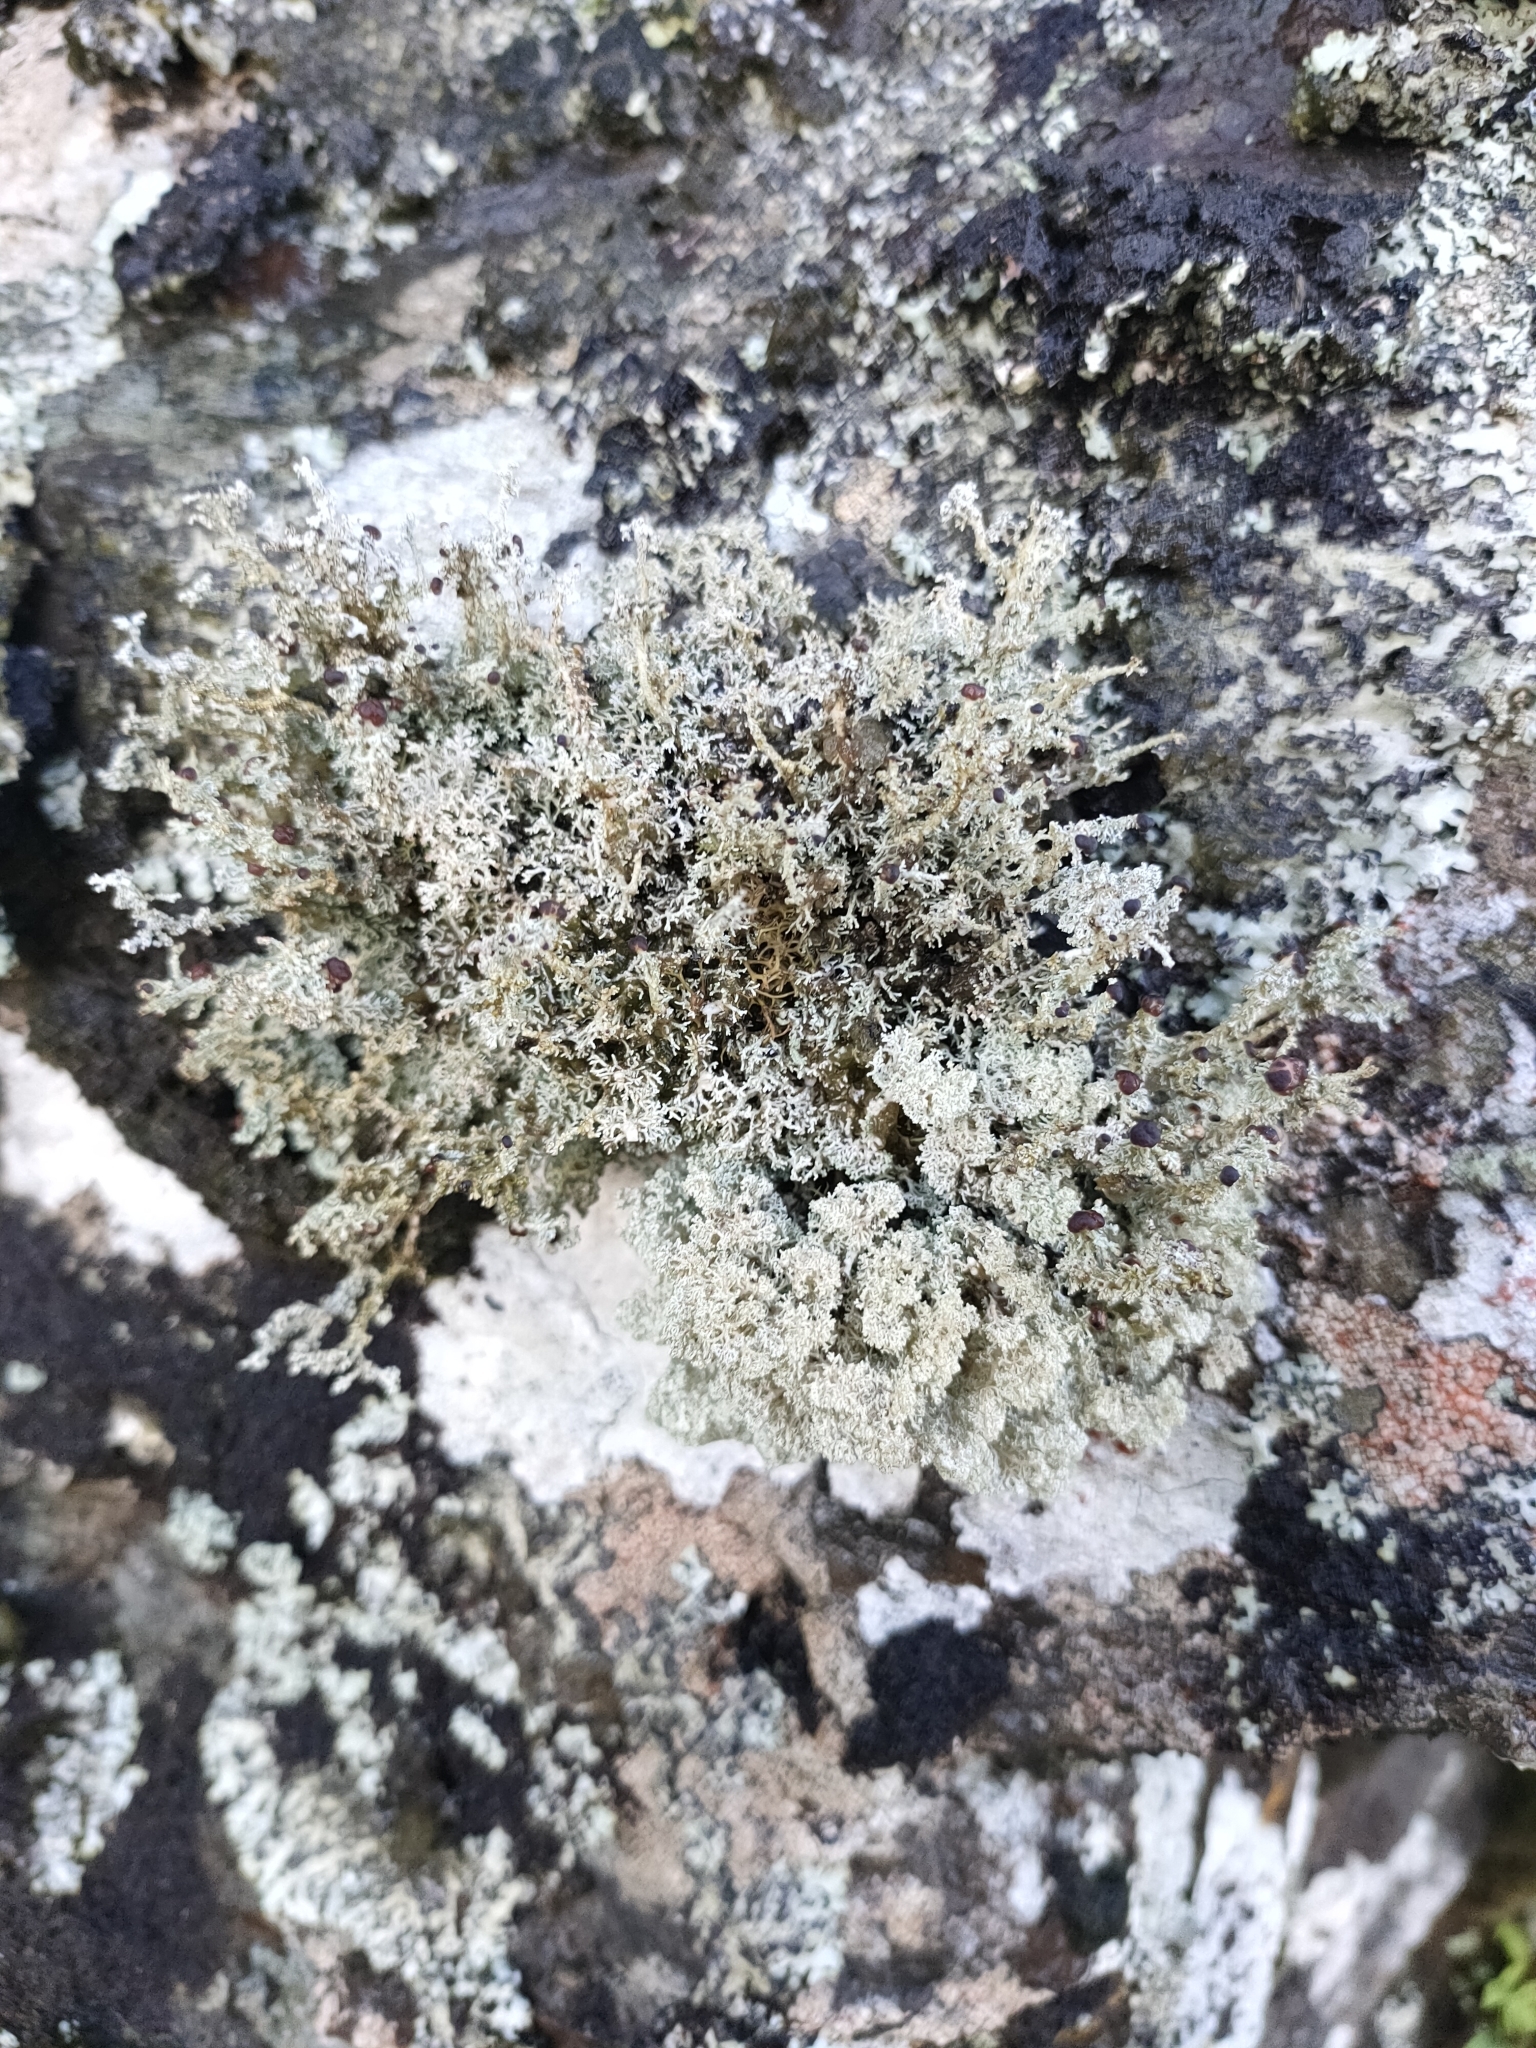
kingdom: Fungi
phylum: Ascomycota
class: Lecanoromycetes
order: Lecanorales
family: Stereocaulaceae
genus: Stereocaulon
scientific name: Stereocaulon ramulosum
